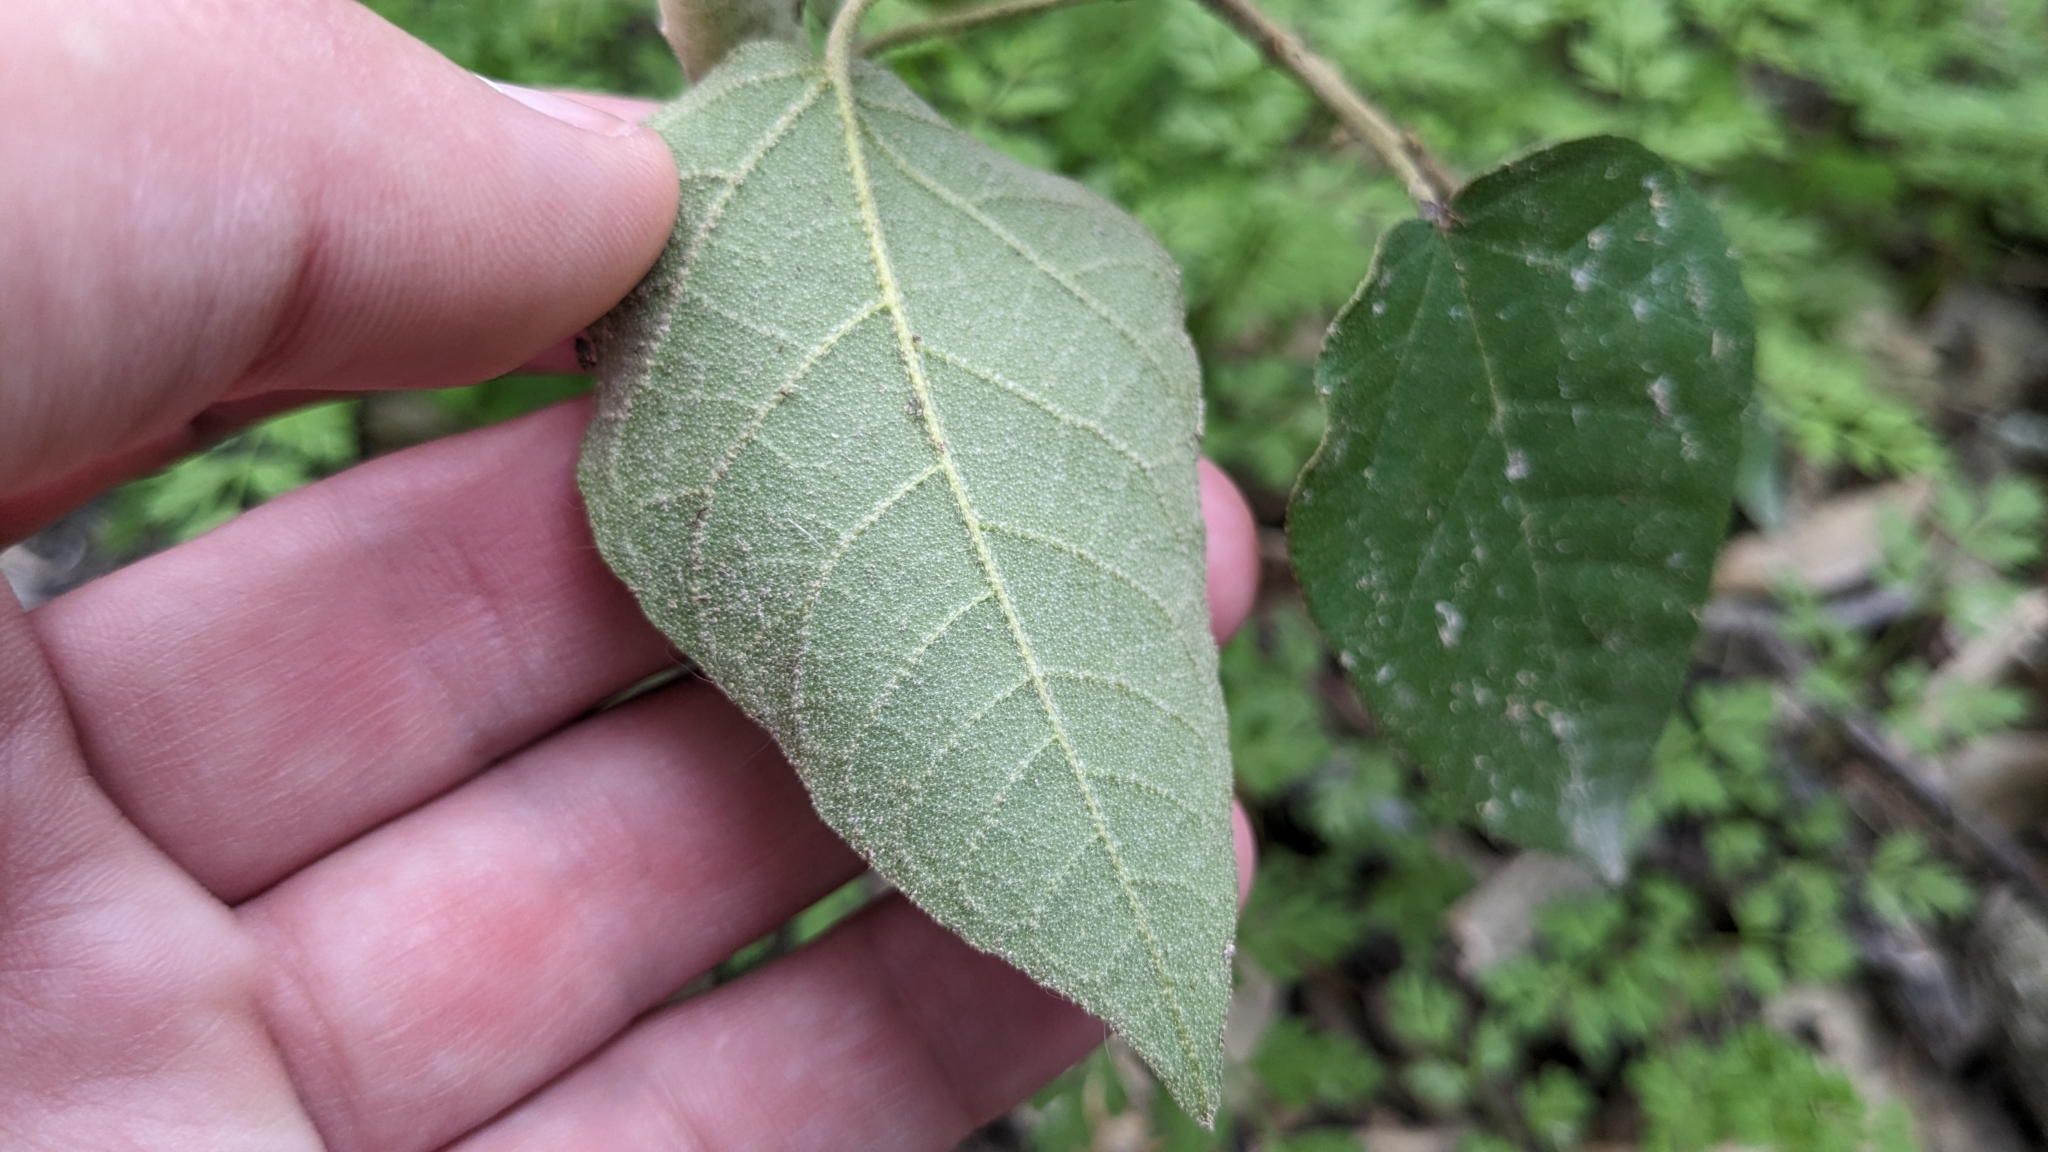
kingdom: Plantae
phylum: Tracheophyta
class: Magnoliopsida
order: Malpighiales
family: Euphorbiaceae
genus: Croton
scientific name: Croton fruticulosus
